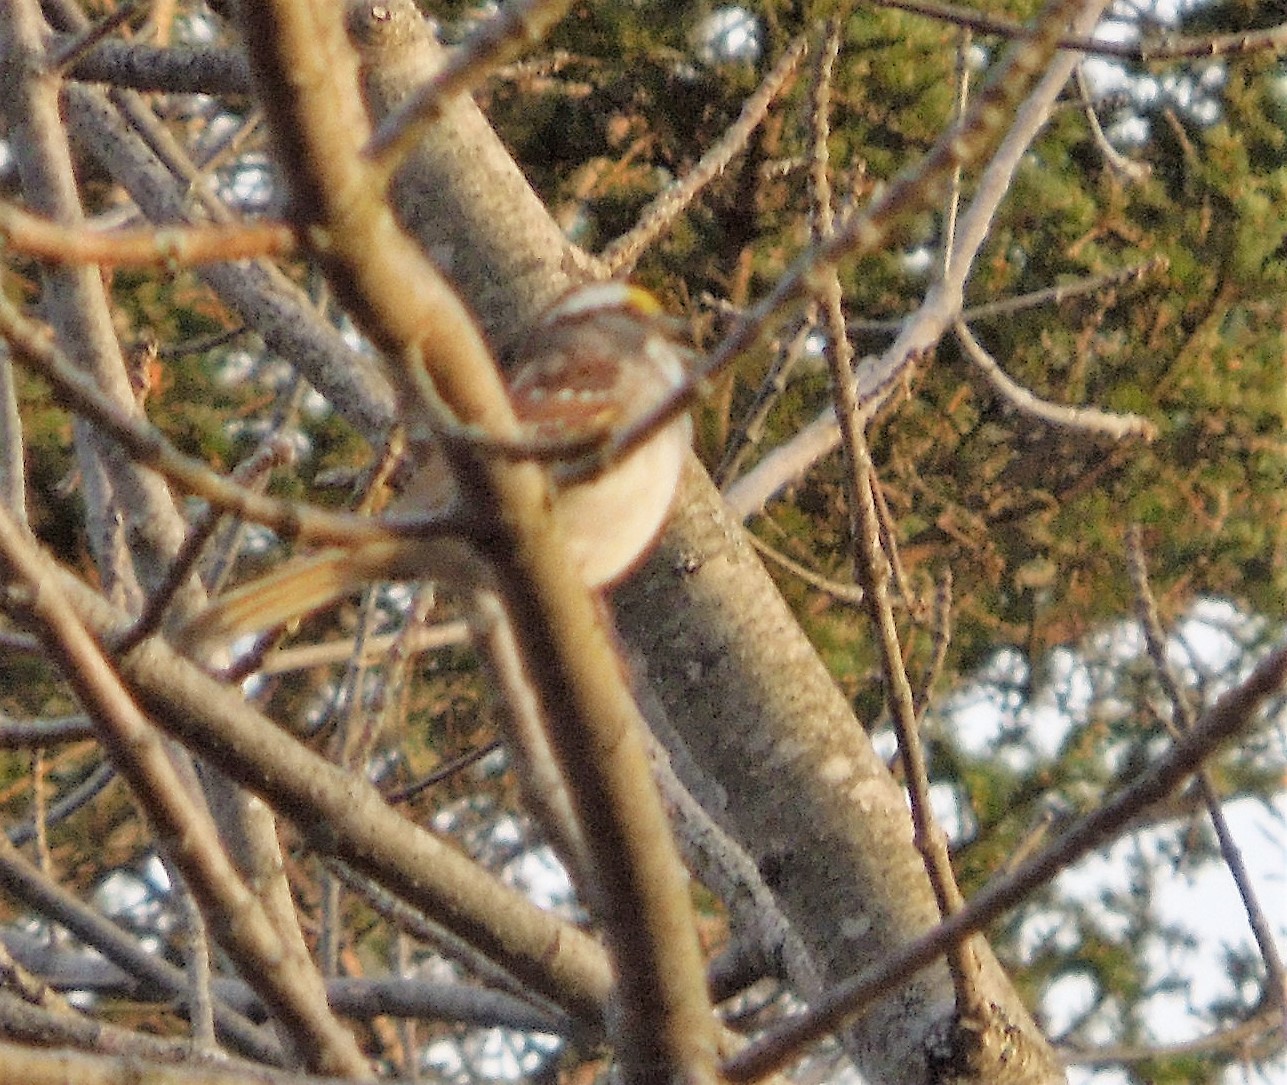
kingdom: Animalia
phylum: Chordata
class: Aves
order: Passeriformes
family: Passerellidae
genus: Zonotrichia
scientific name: Zonotrichia albicollis
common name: White-throated sparrow
